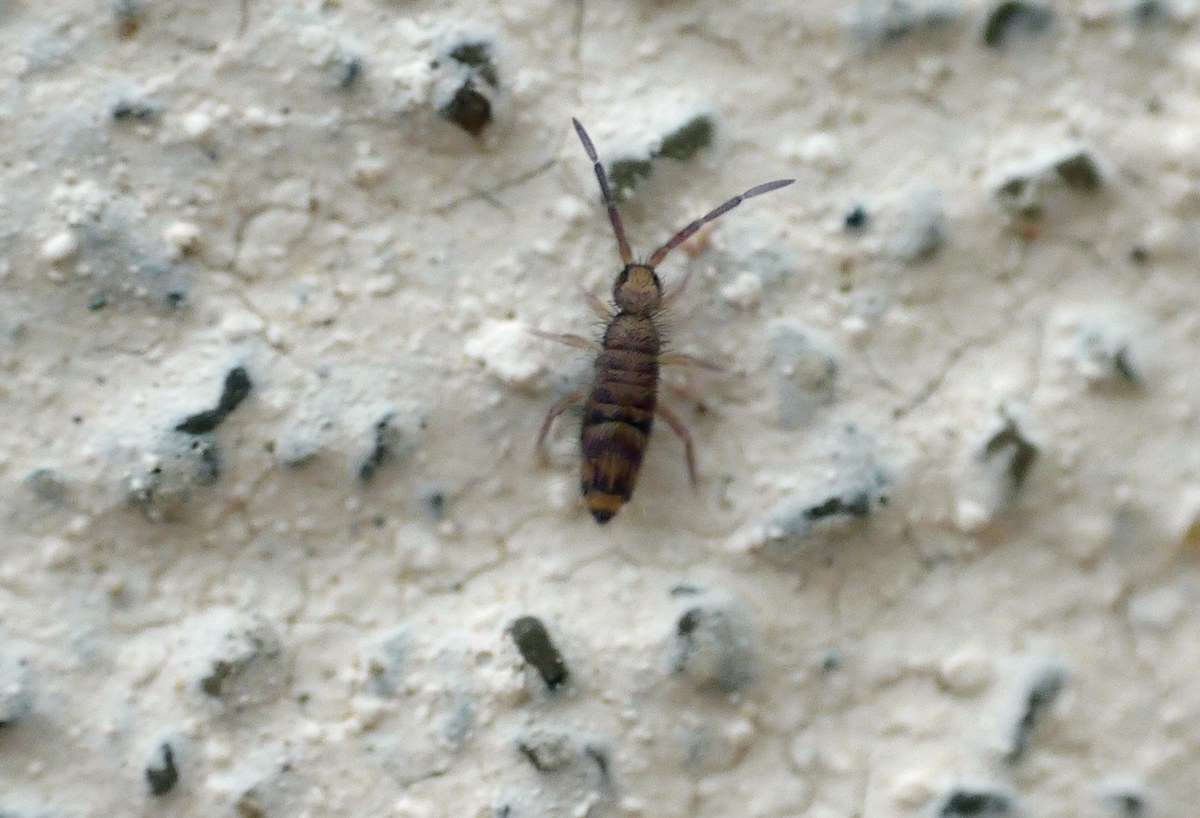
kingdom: Animalia
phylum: Arthropoda
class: Collembola
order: Entomobryomorpha
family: Entomobryidae
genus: Entomobrya
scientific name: Entomobrya multifasciata
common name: Springtail
